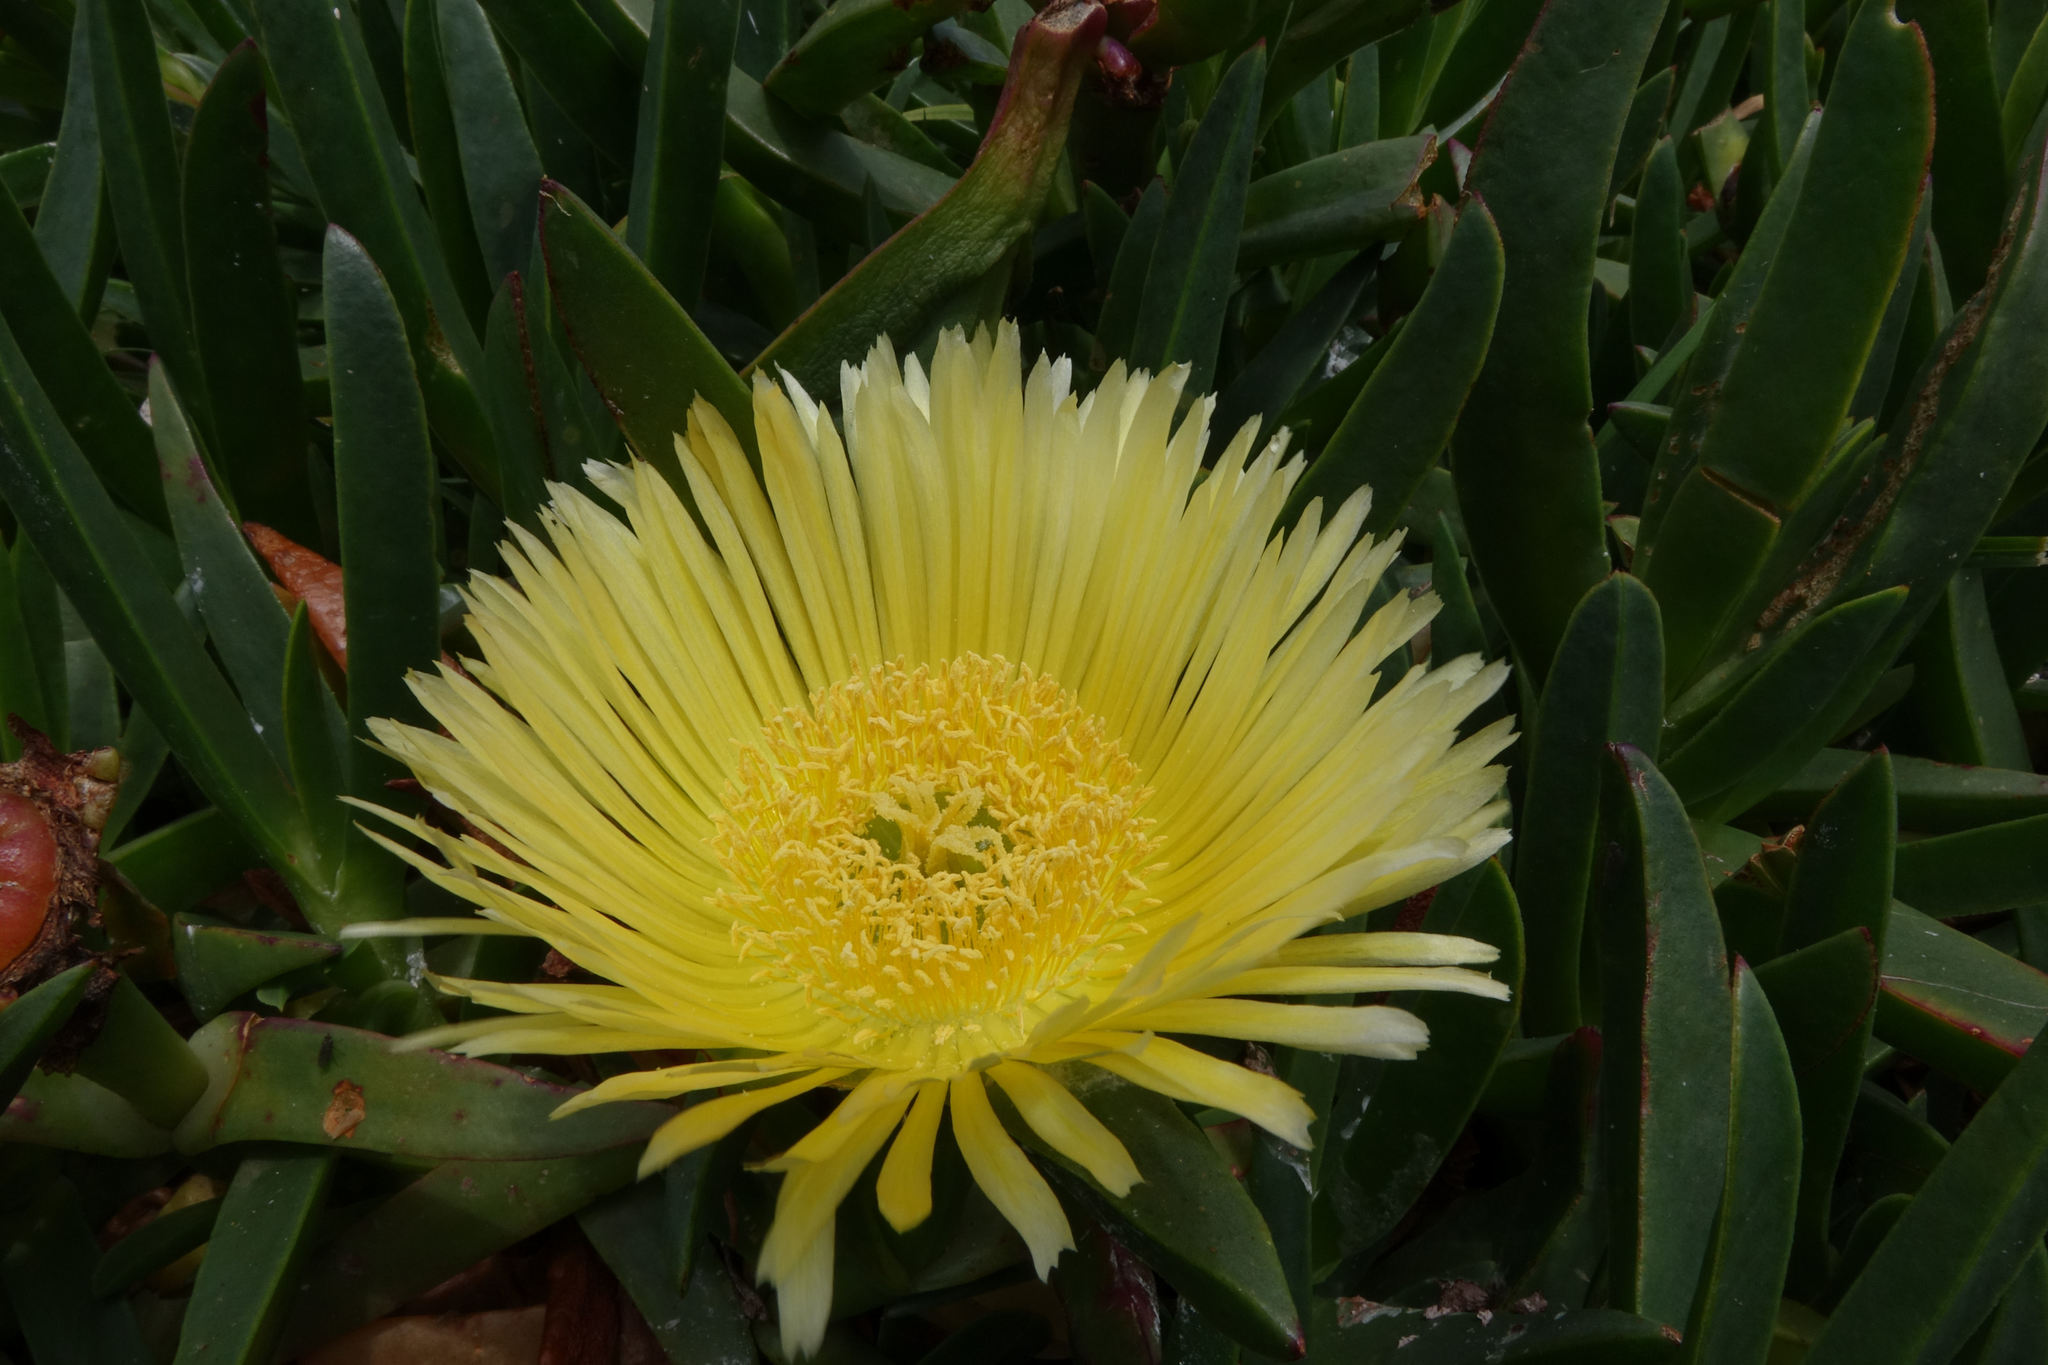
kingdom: Plantae
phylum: Tracheophyta
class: Magnoliopsida
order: Caryophyllales
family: Aizoaceae
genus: Carpobrotus
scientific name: Carpobrotus edulis
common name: Hottentot-fig
